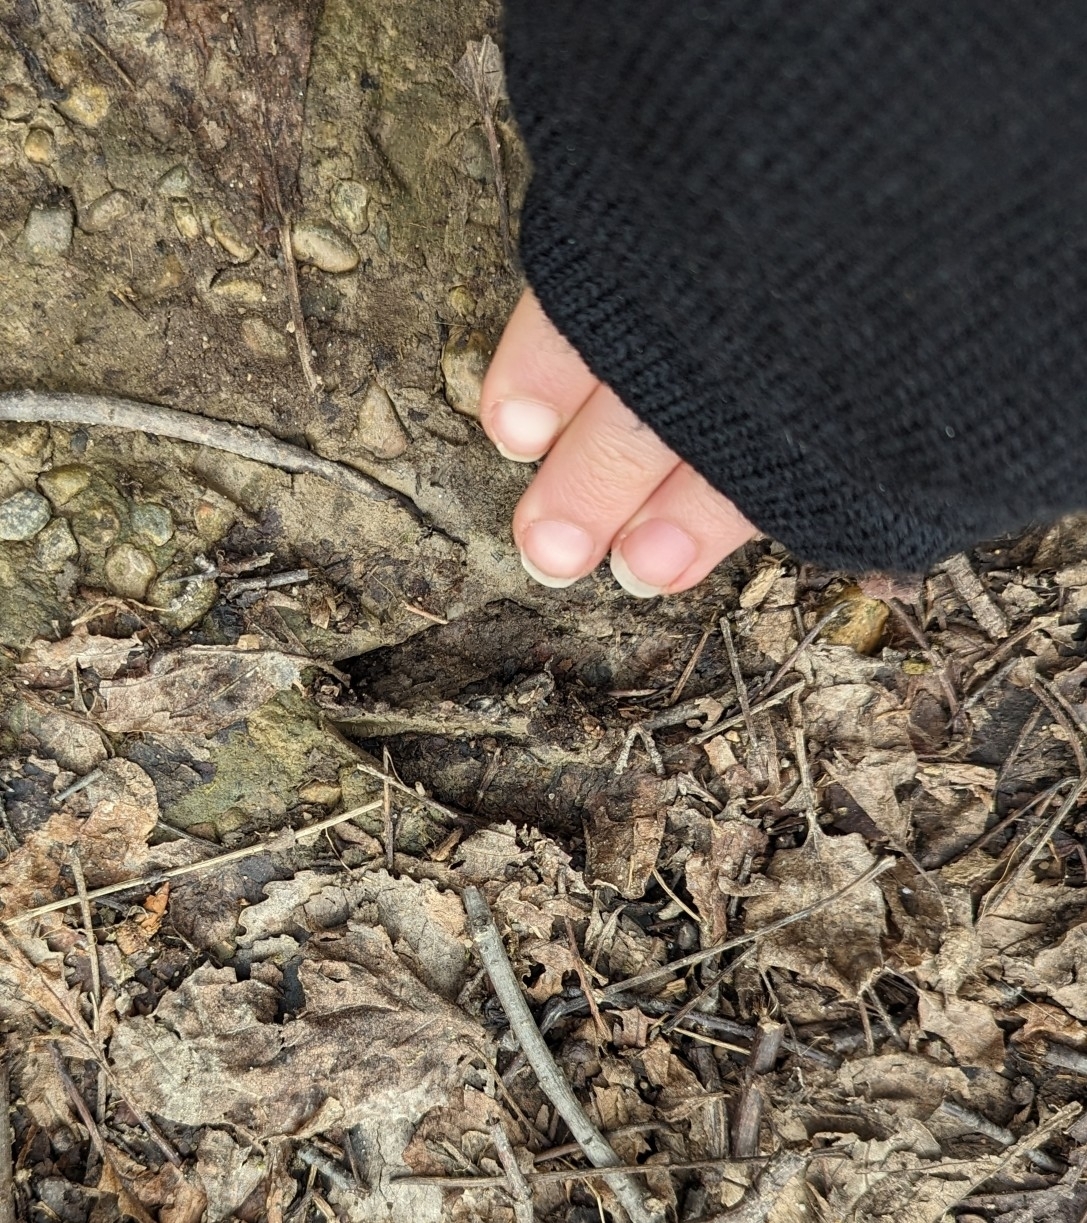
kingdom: Animalia
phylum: Chordata
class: Mammalia
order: Artiodactyla
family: Cervidae
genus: Odocoileus
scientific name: Odocoileus virginianus
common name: White-tailed deer
